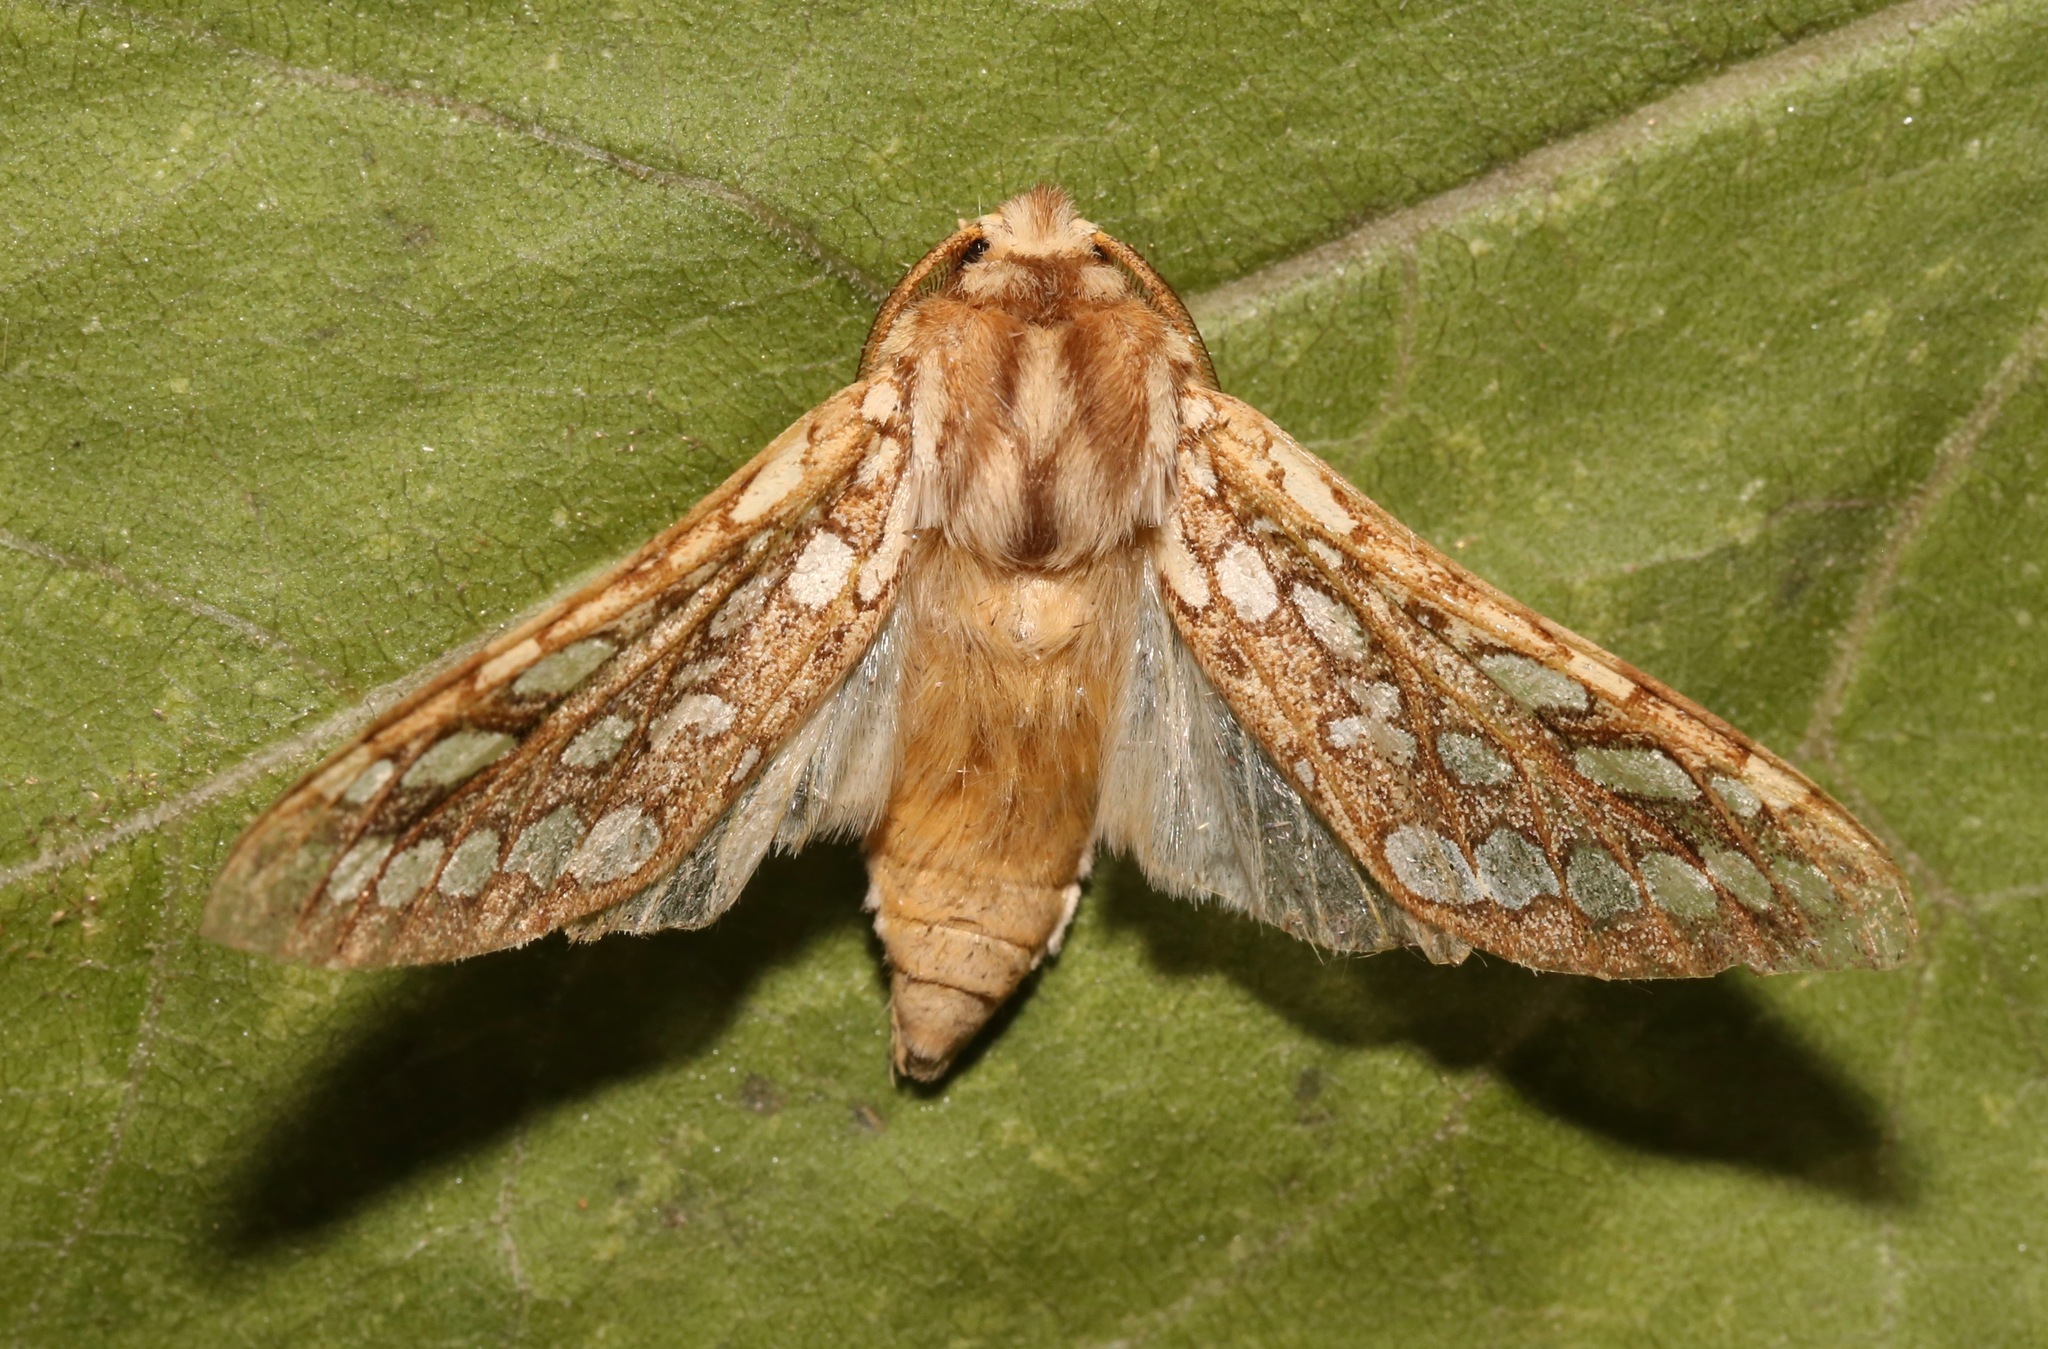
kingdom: Animalia
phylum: Arthropoda
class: Insecta
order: Lepidoptera
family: Erebidae
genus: Lophocampa
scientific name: Lophocampa argentata
